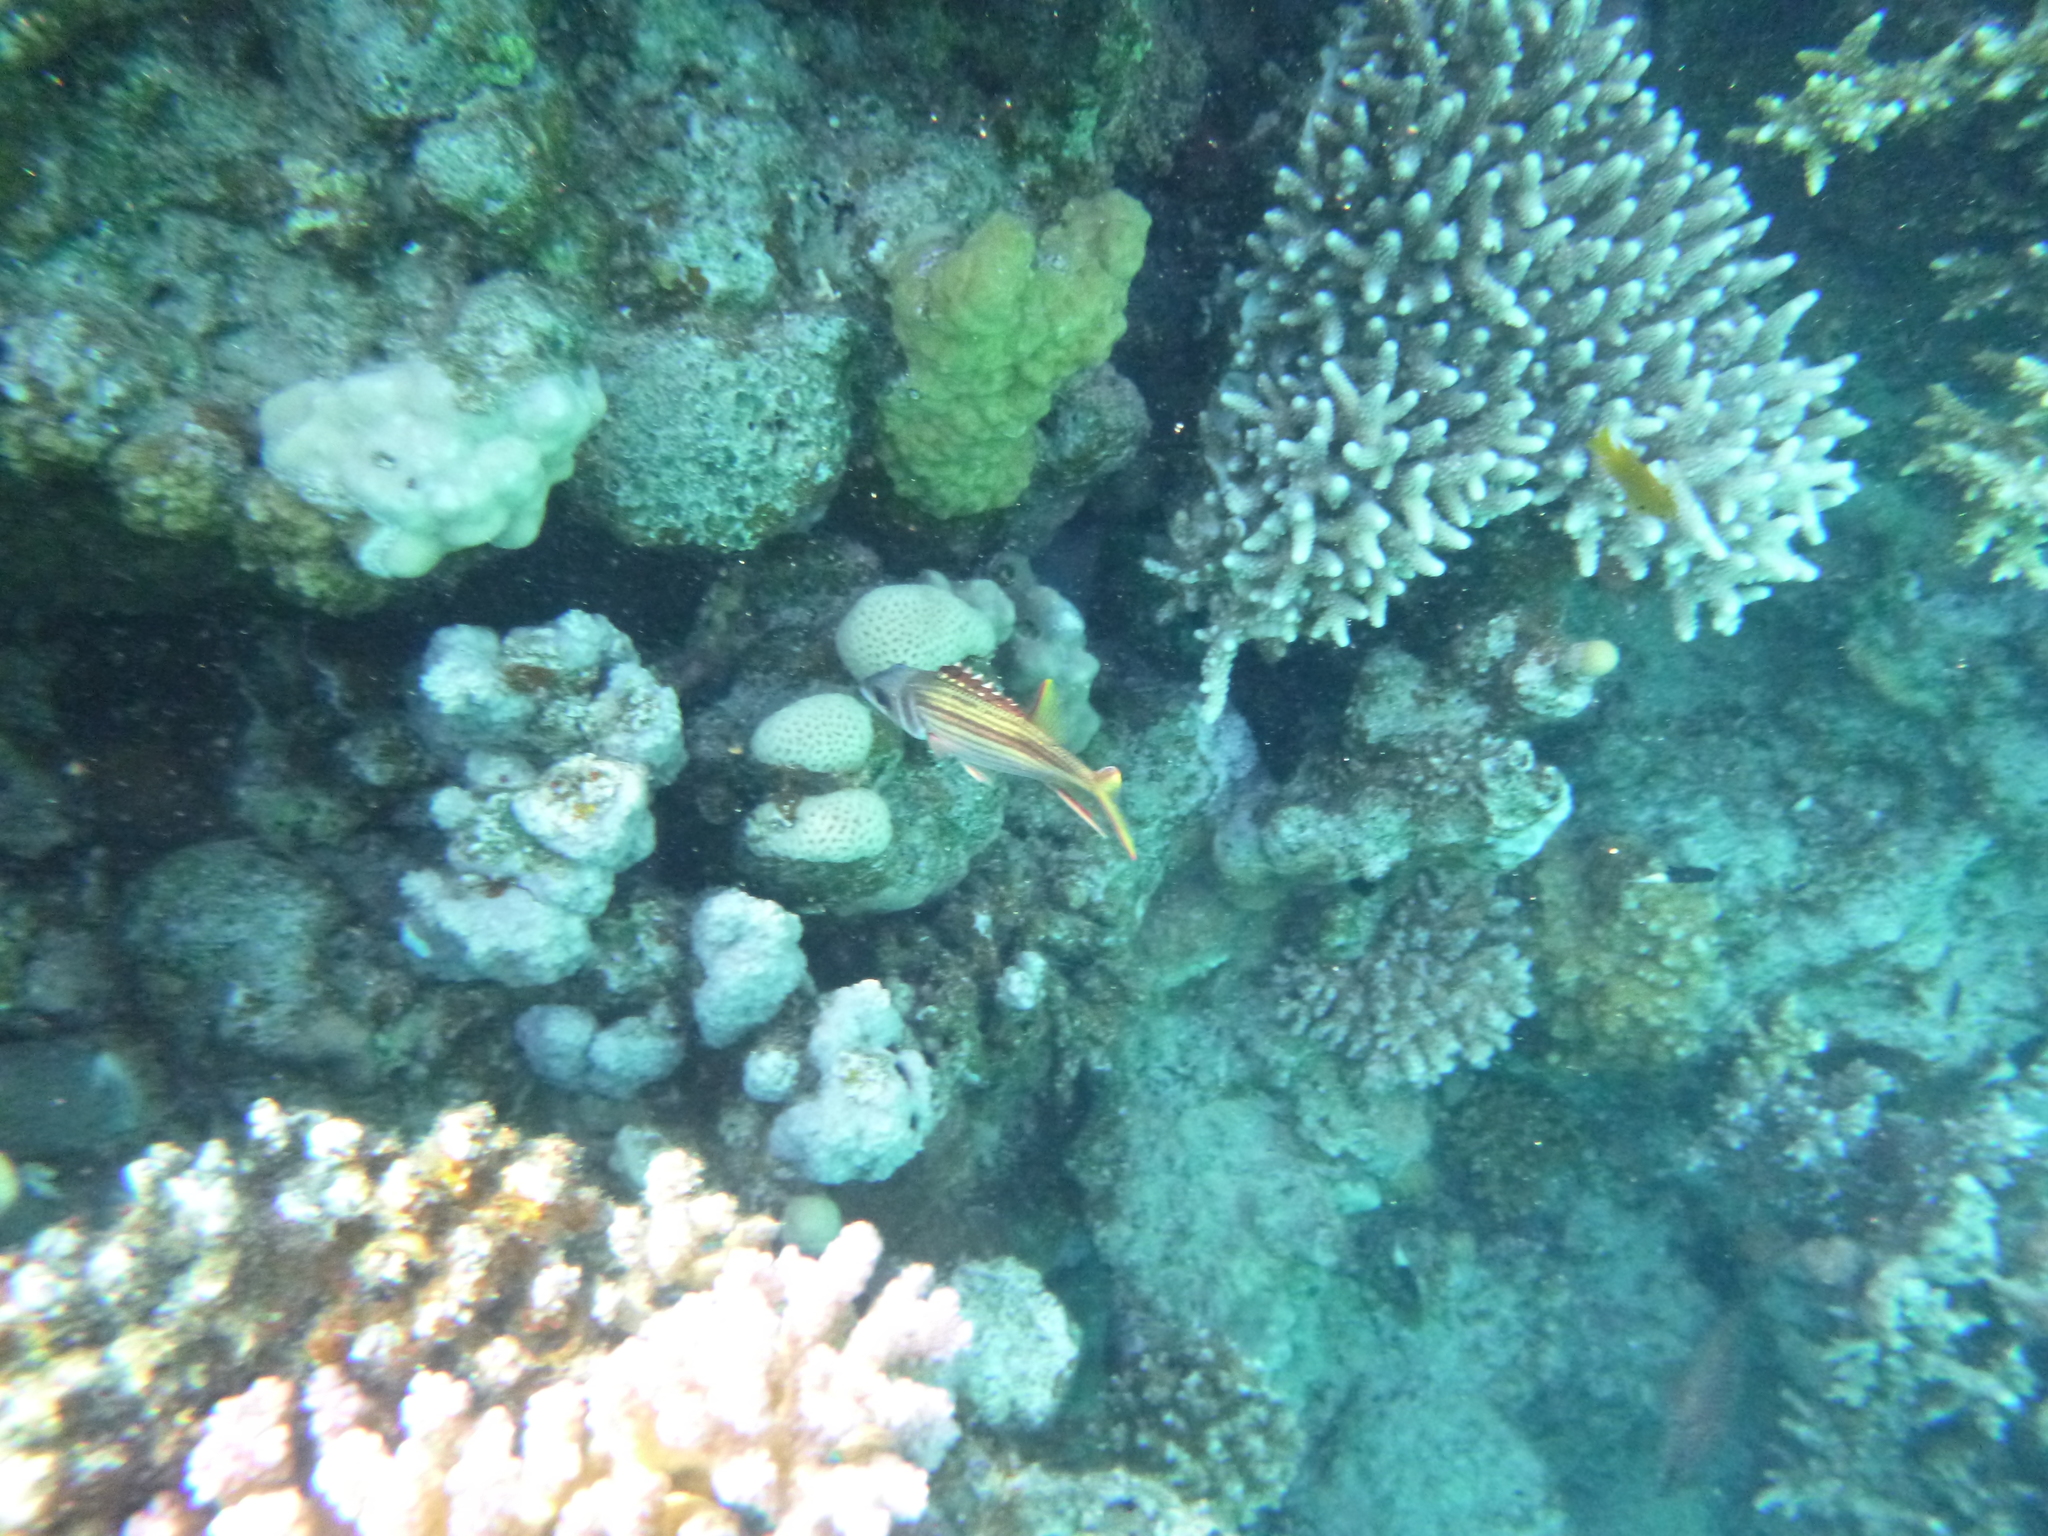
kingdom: Animalia
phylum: Chordata
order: Beryciformes
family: Holocentridae
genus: Neoniphon
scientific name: Neoniphon sammara
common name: Sammara squirrelfish
